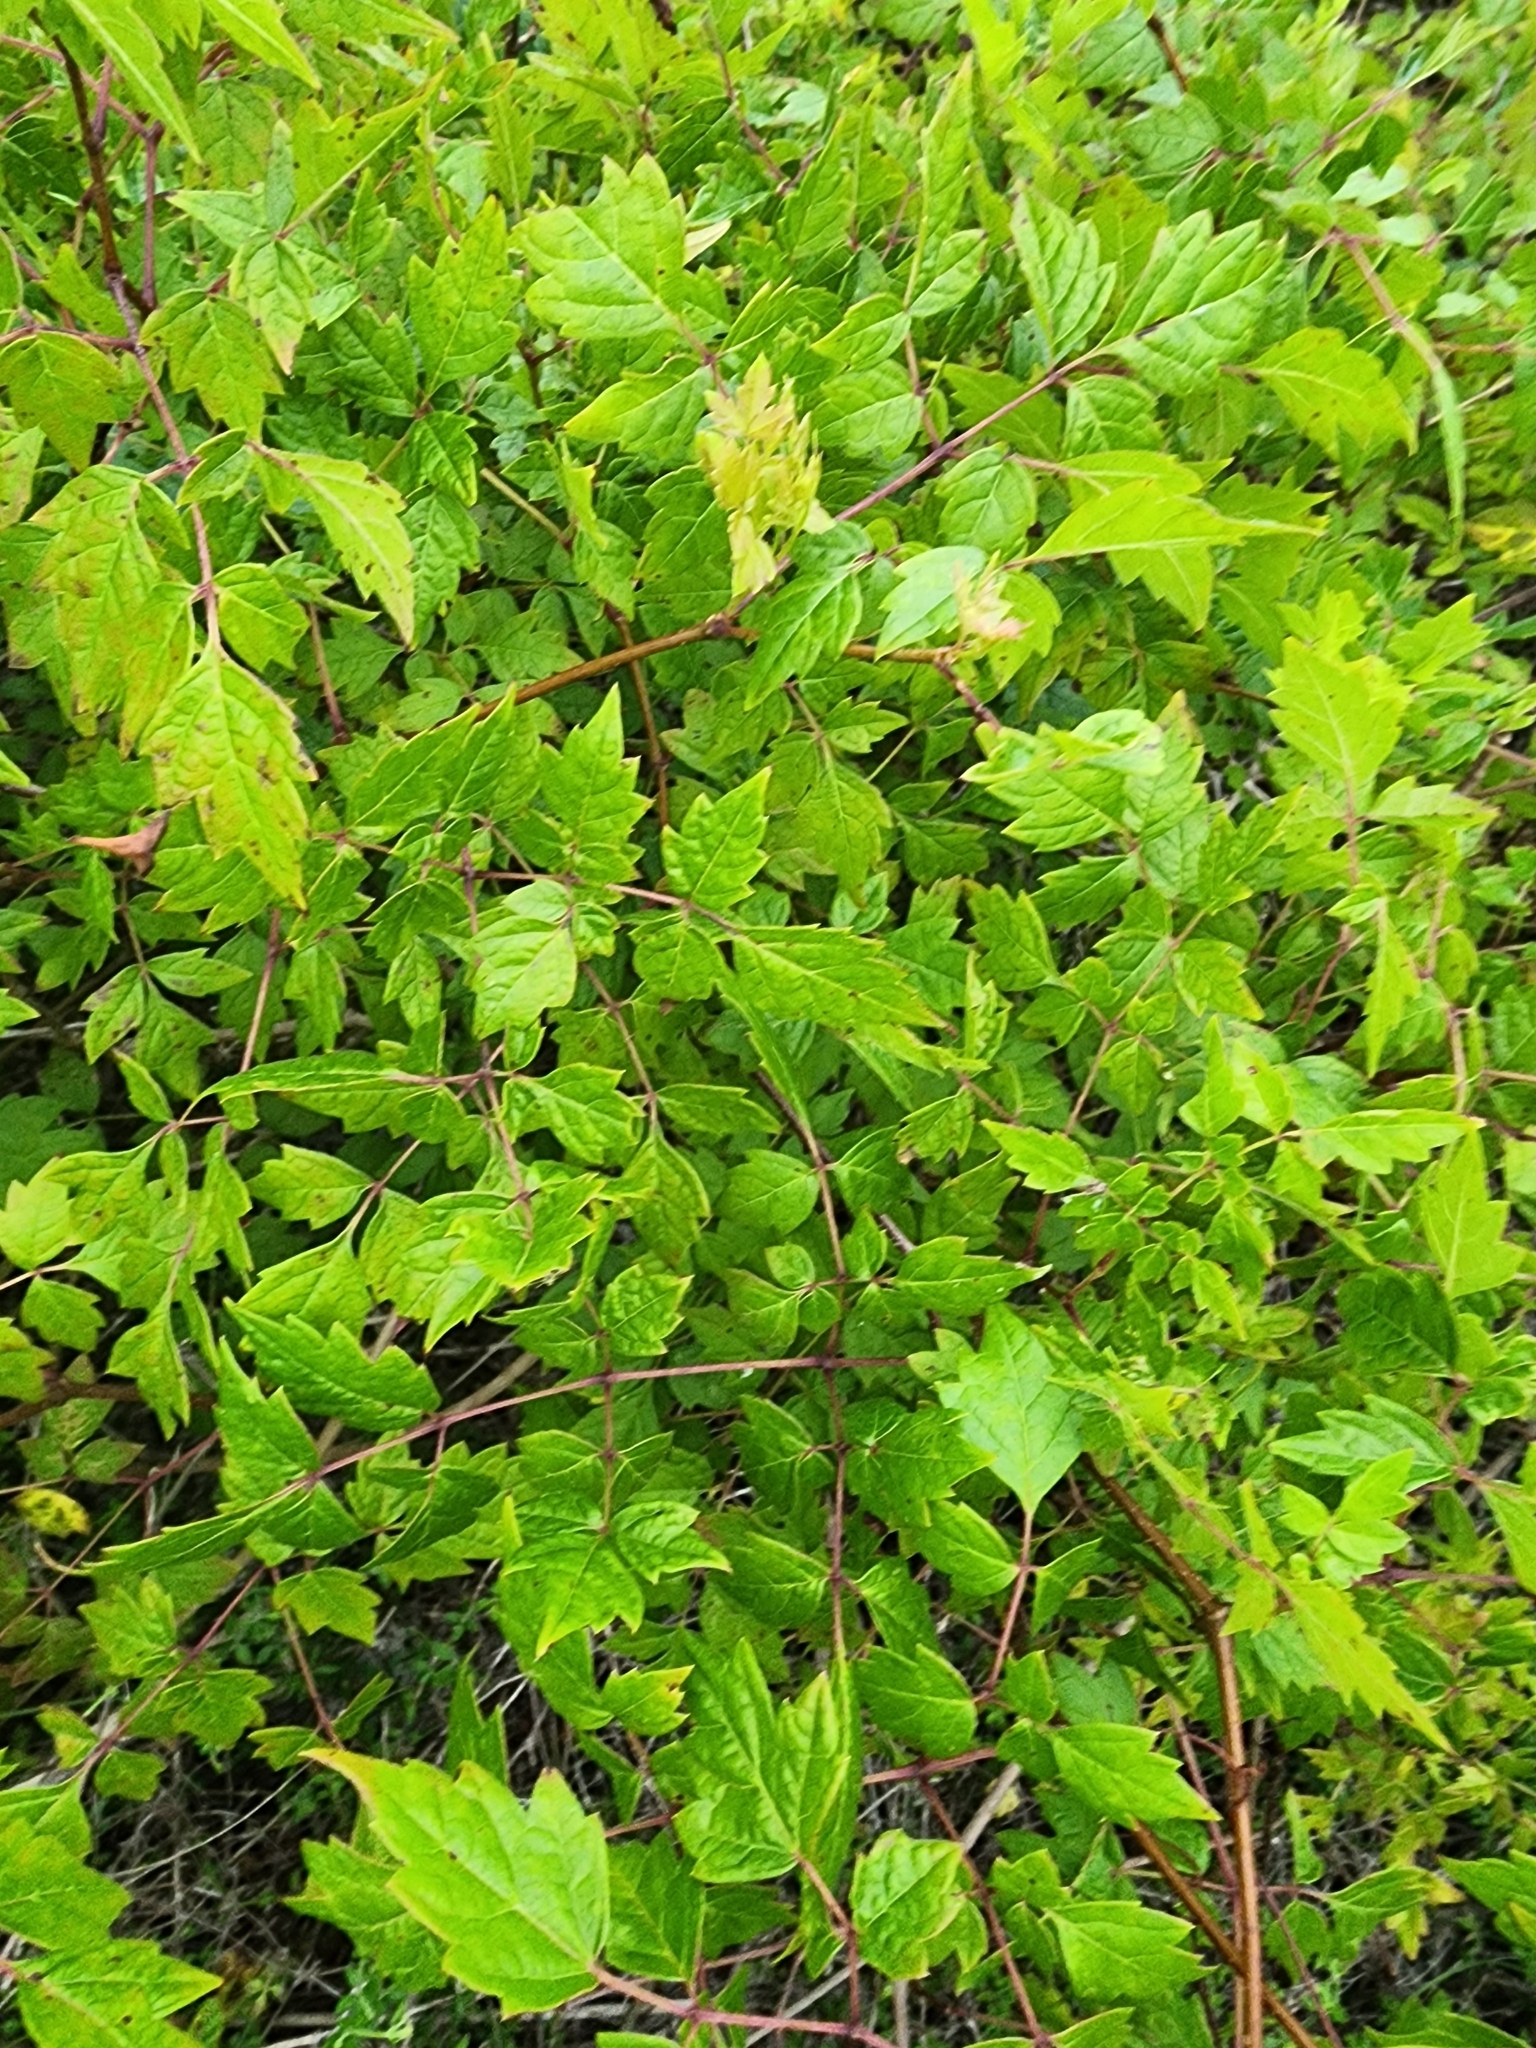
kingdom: Plantae
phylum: Tracheophyta
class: Magnoliopsida
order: Vitales
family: Vitaceae
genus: Nekemias
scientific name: Nekemias arborea
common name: Peppervine
